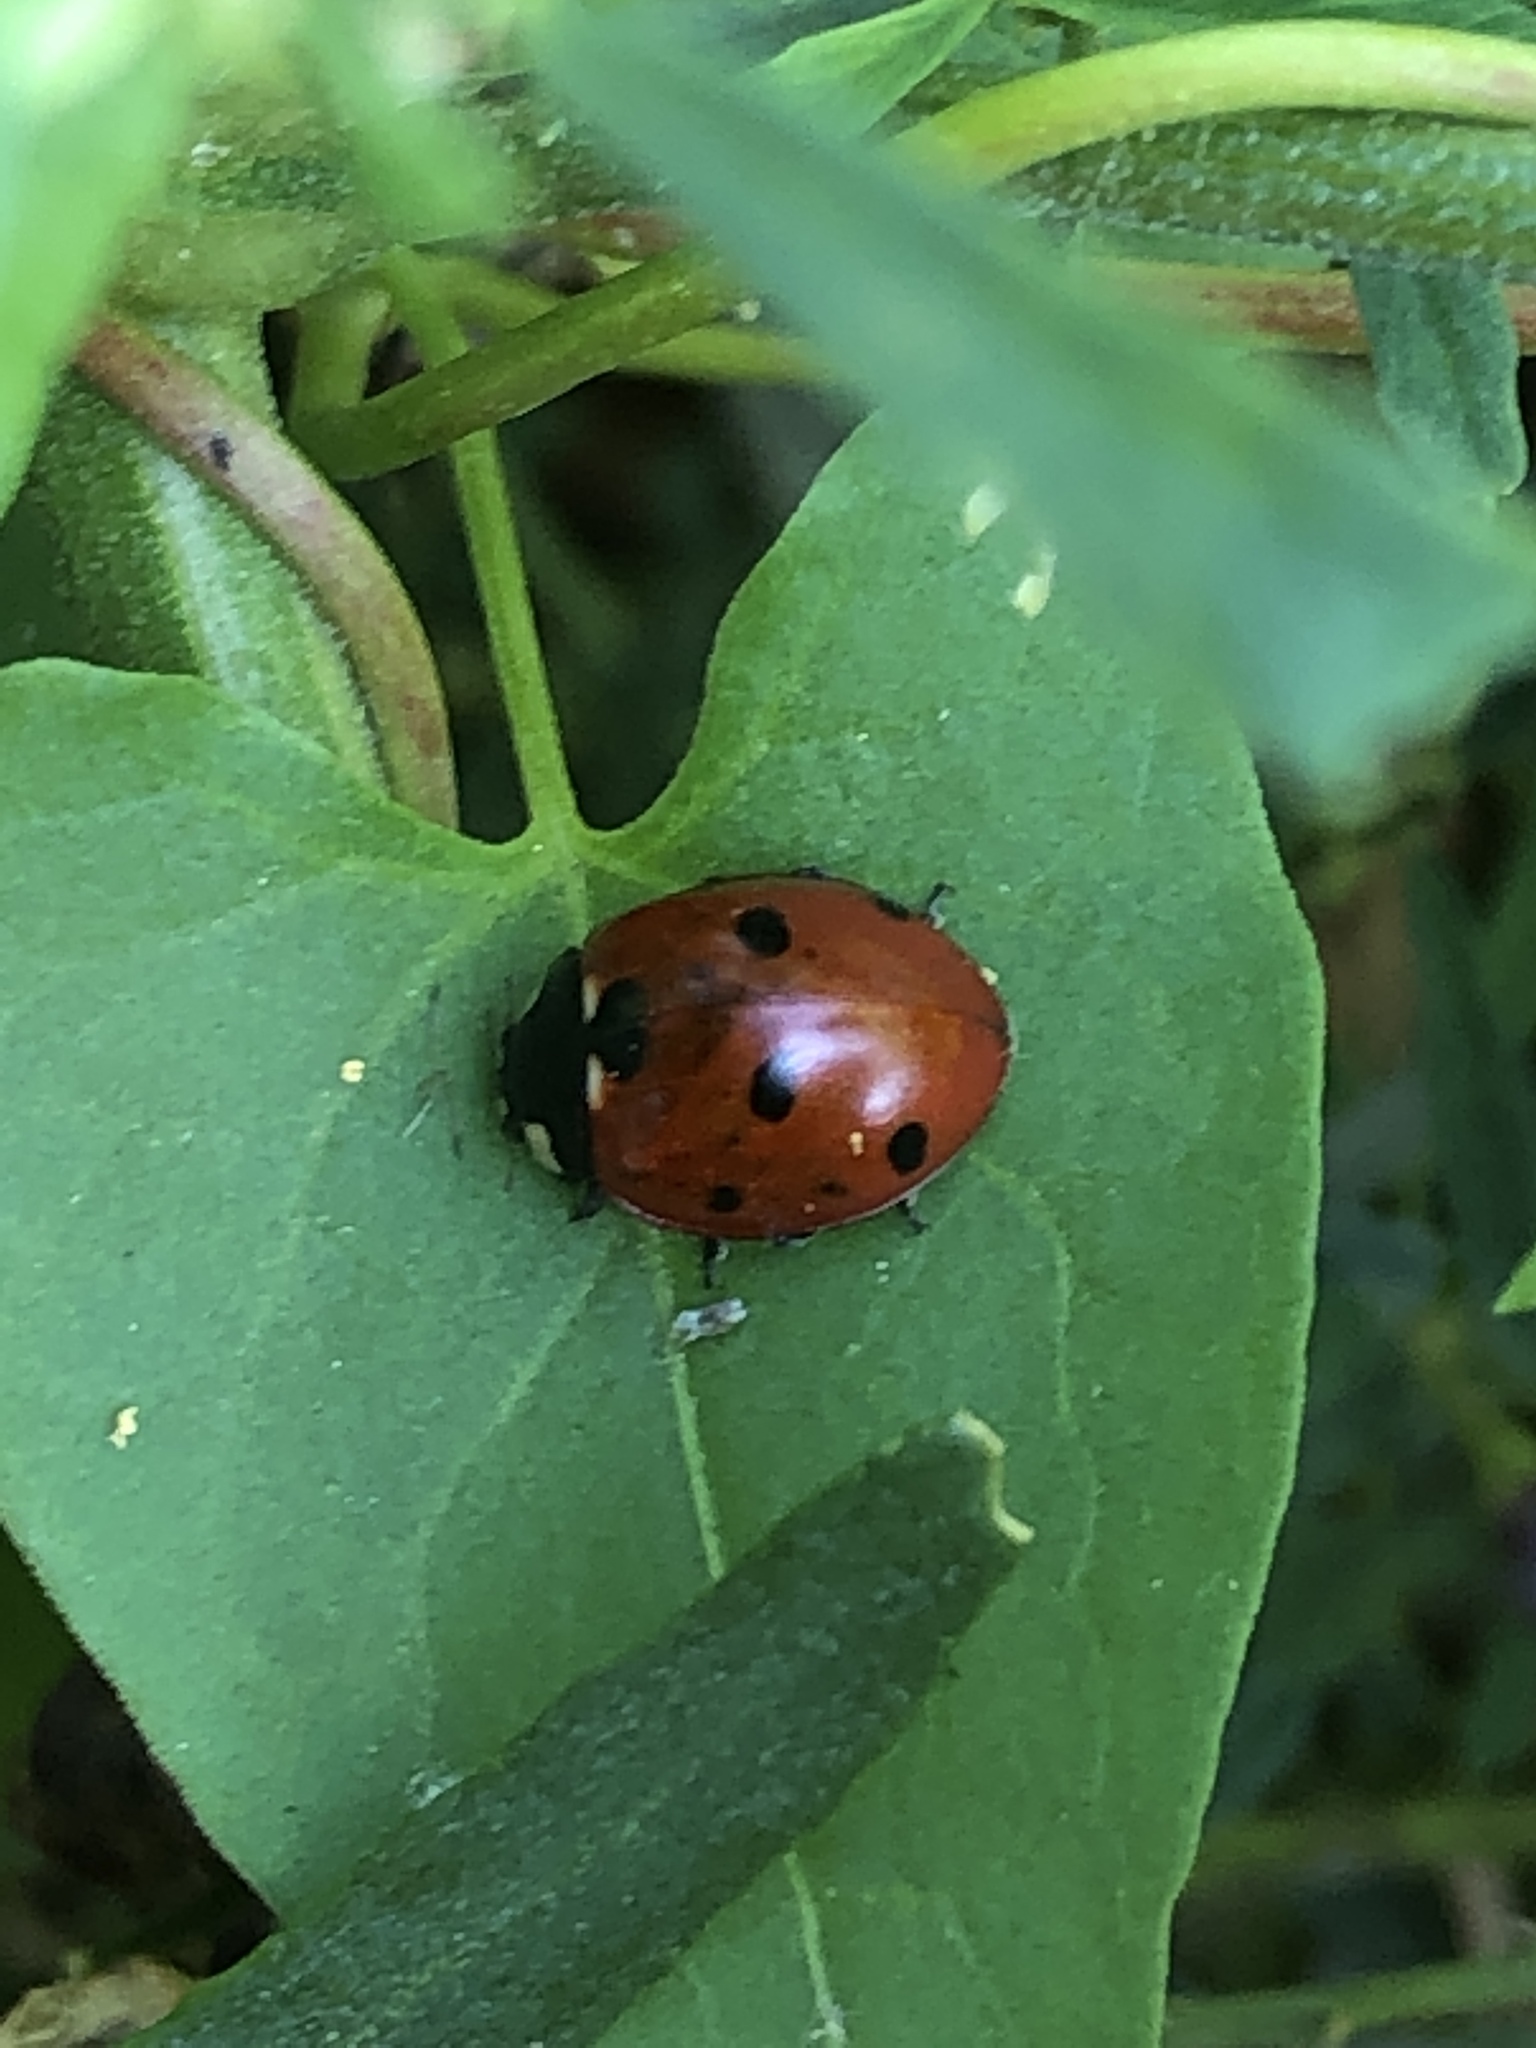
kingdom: Animalia
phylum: Arthropoda
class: Insecta
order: Coleoptera
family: Coccinellidae
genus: Coccinella
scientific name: Coccinella septempunctata
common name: Sevenspotted lady beetle
